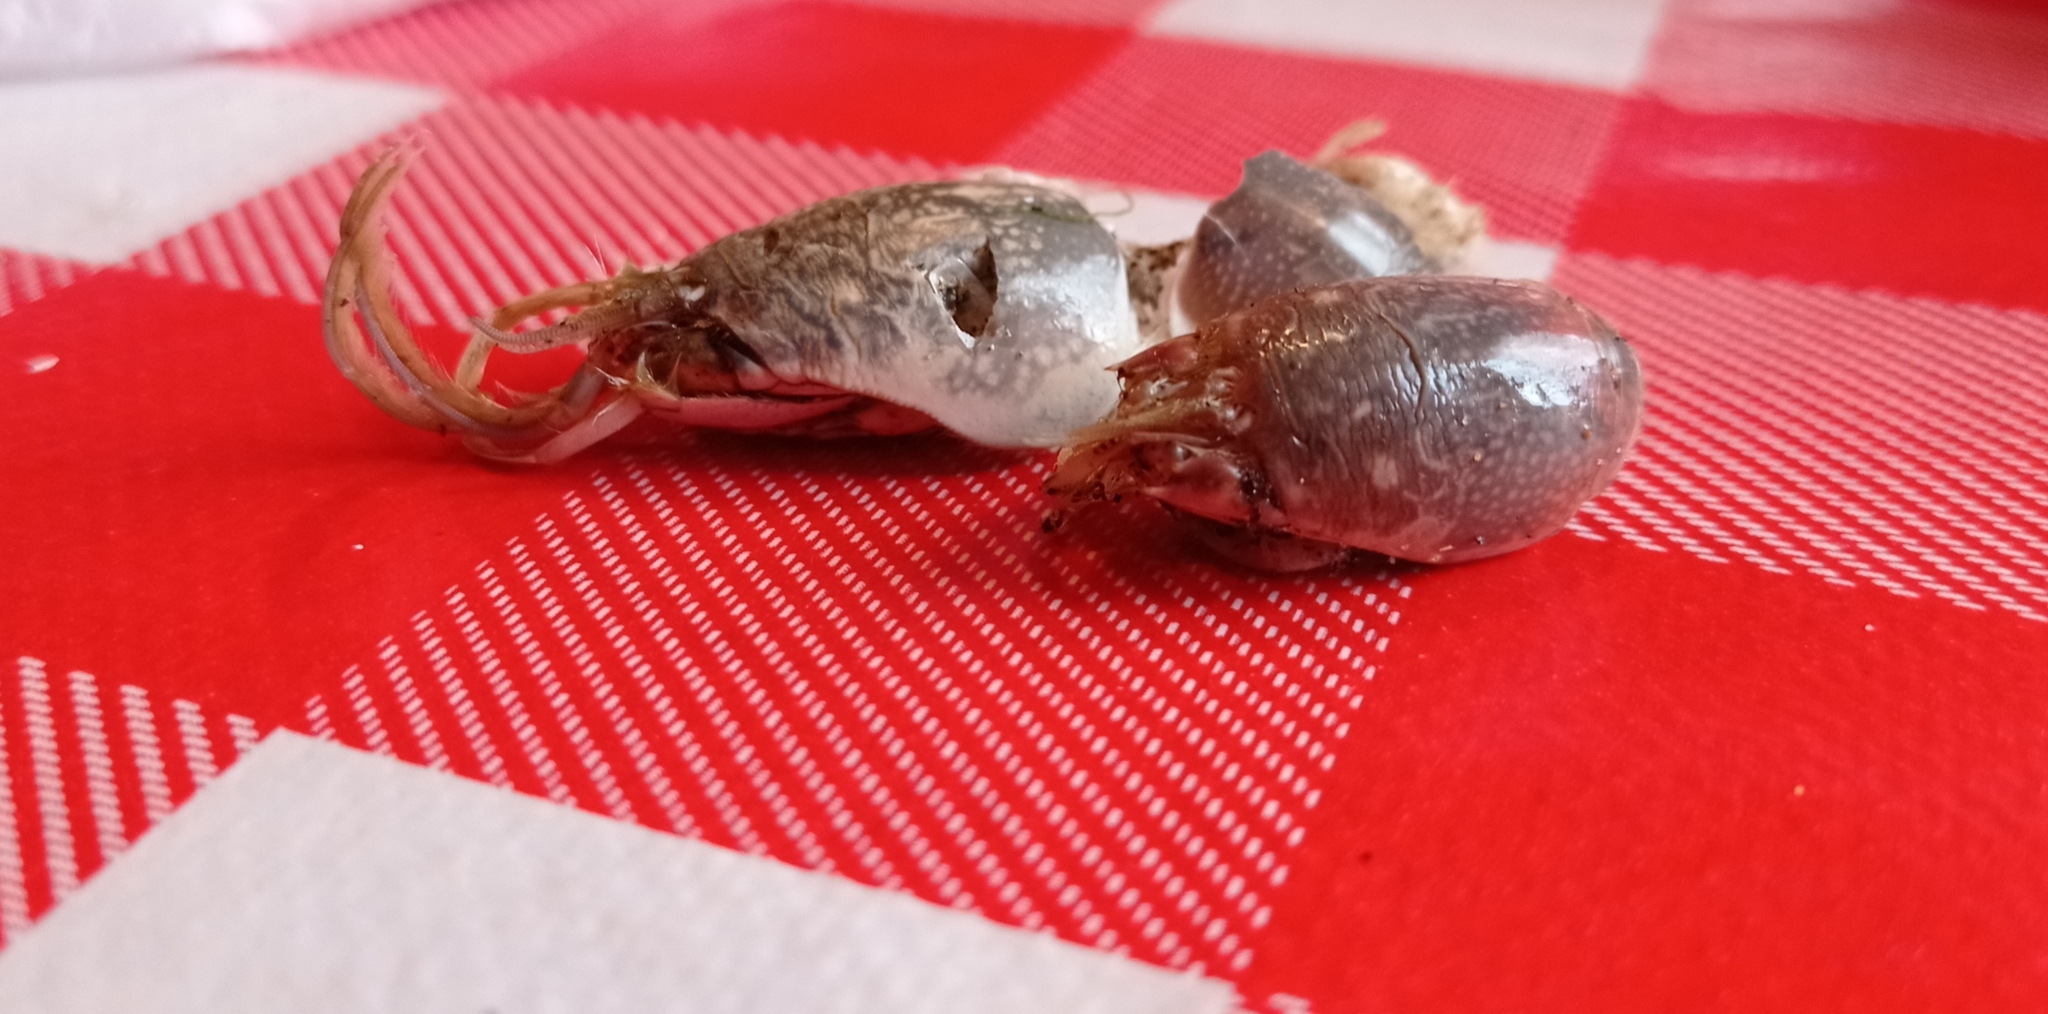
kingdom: Animalia
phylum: Arthropoda
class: Malacostraca
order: Decapoda
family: Hippidae
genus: Emerita
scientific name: Emerita analoga
